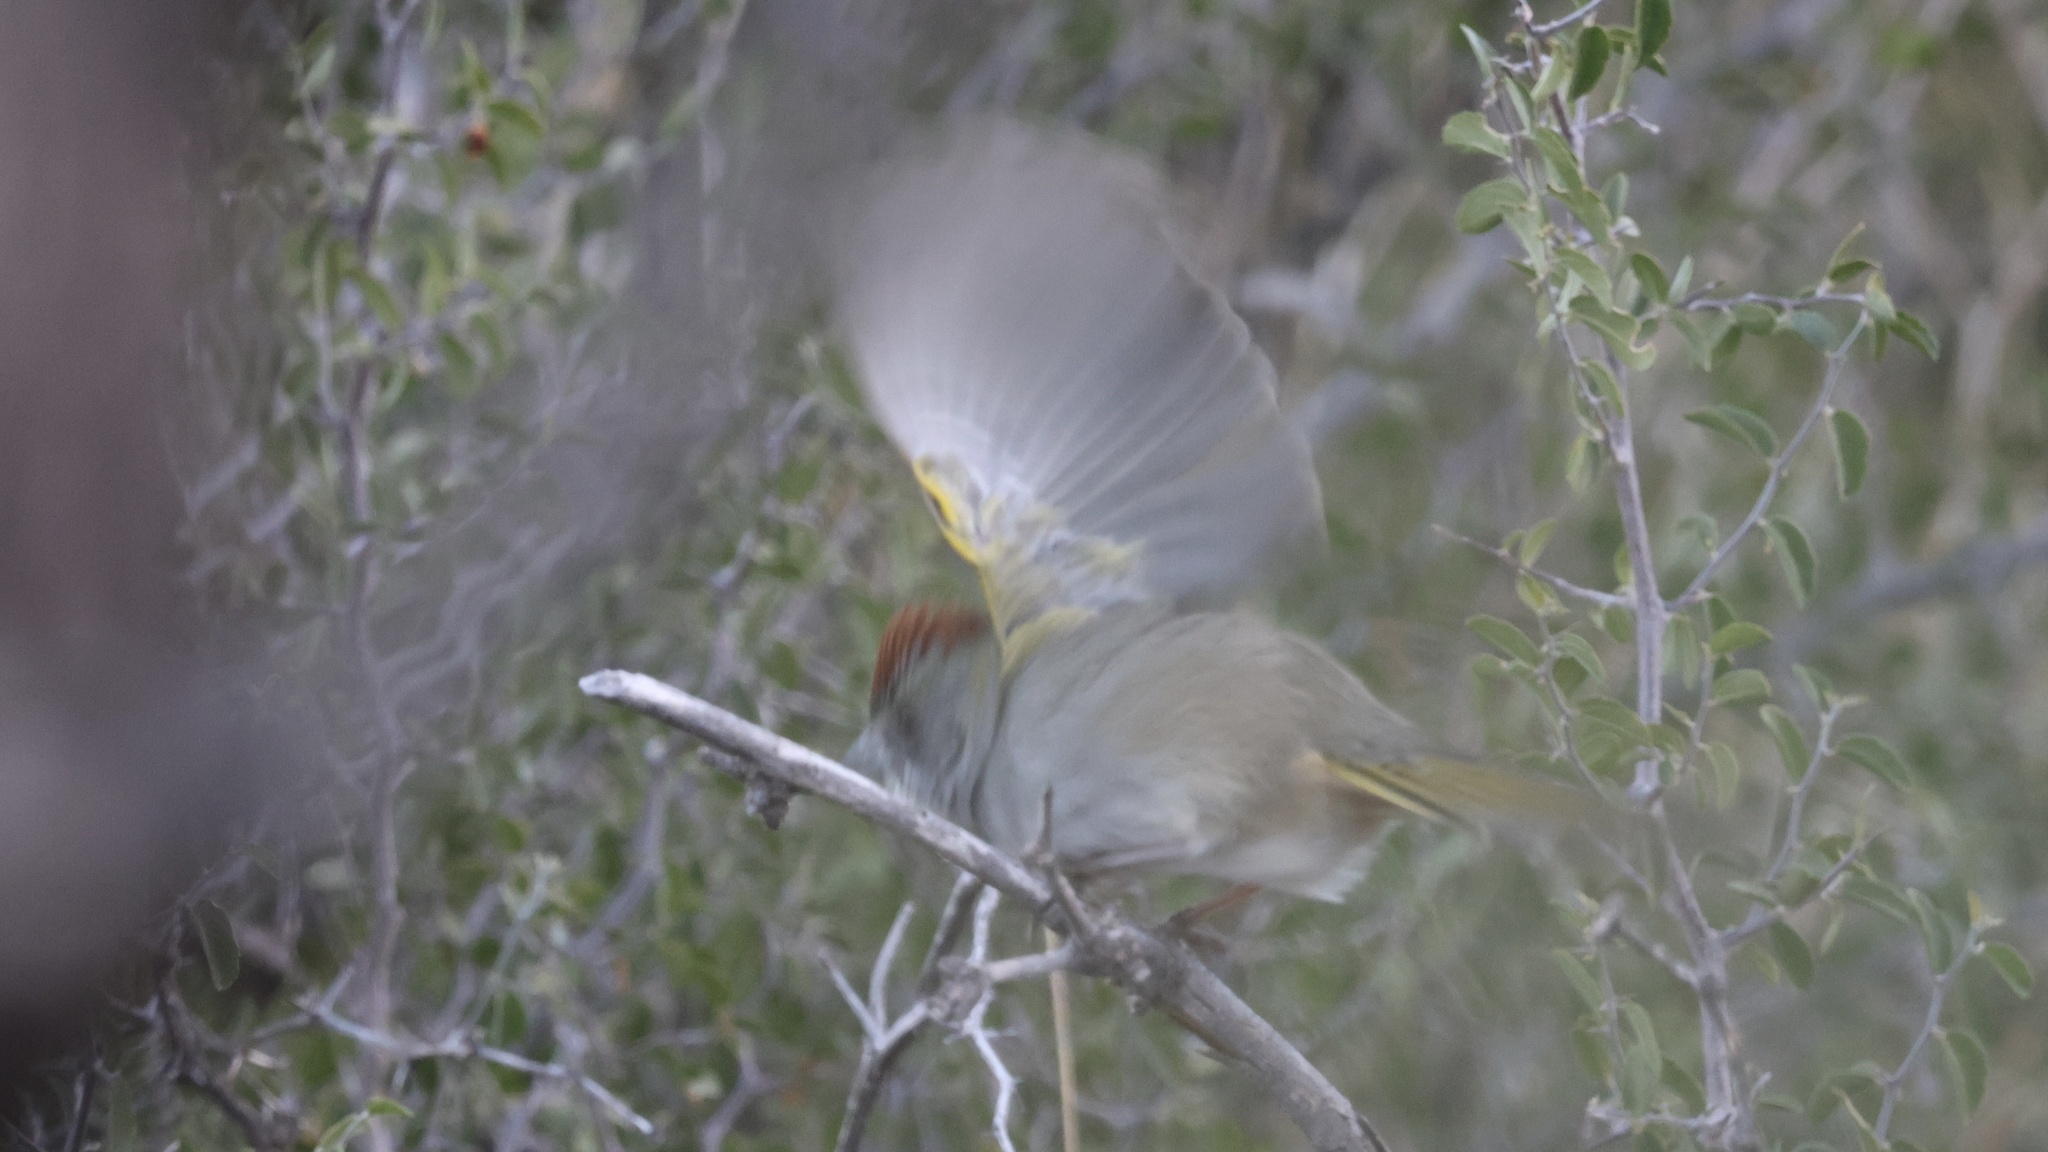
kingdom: Animalia
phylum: Chordata
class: Aves
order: Passeriformes
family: Passerellidae
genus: Pipilo
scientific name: Pipilo chlorurus
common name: Green-tailed towhee
